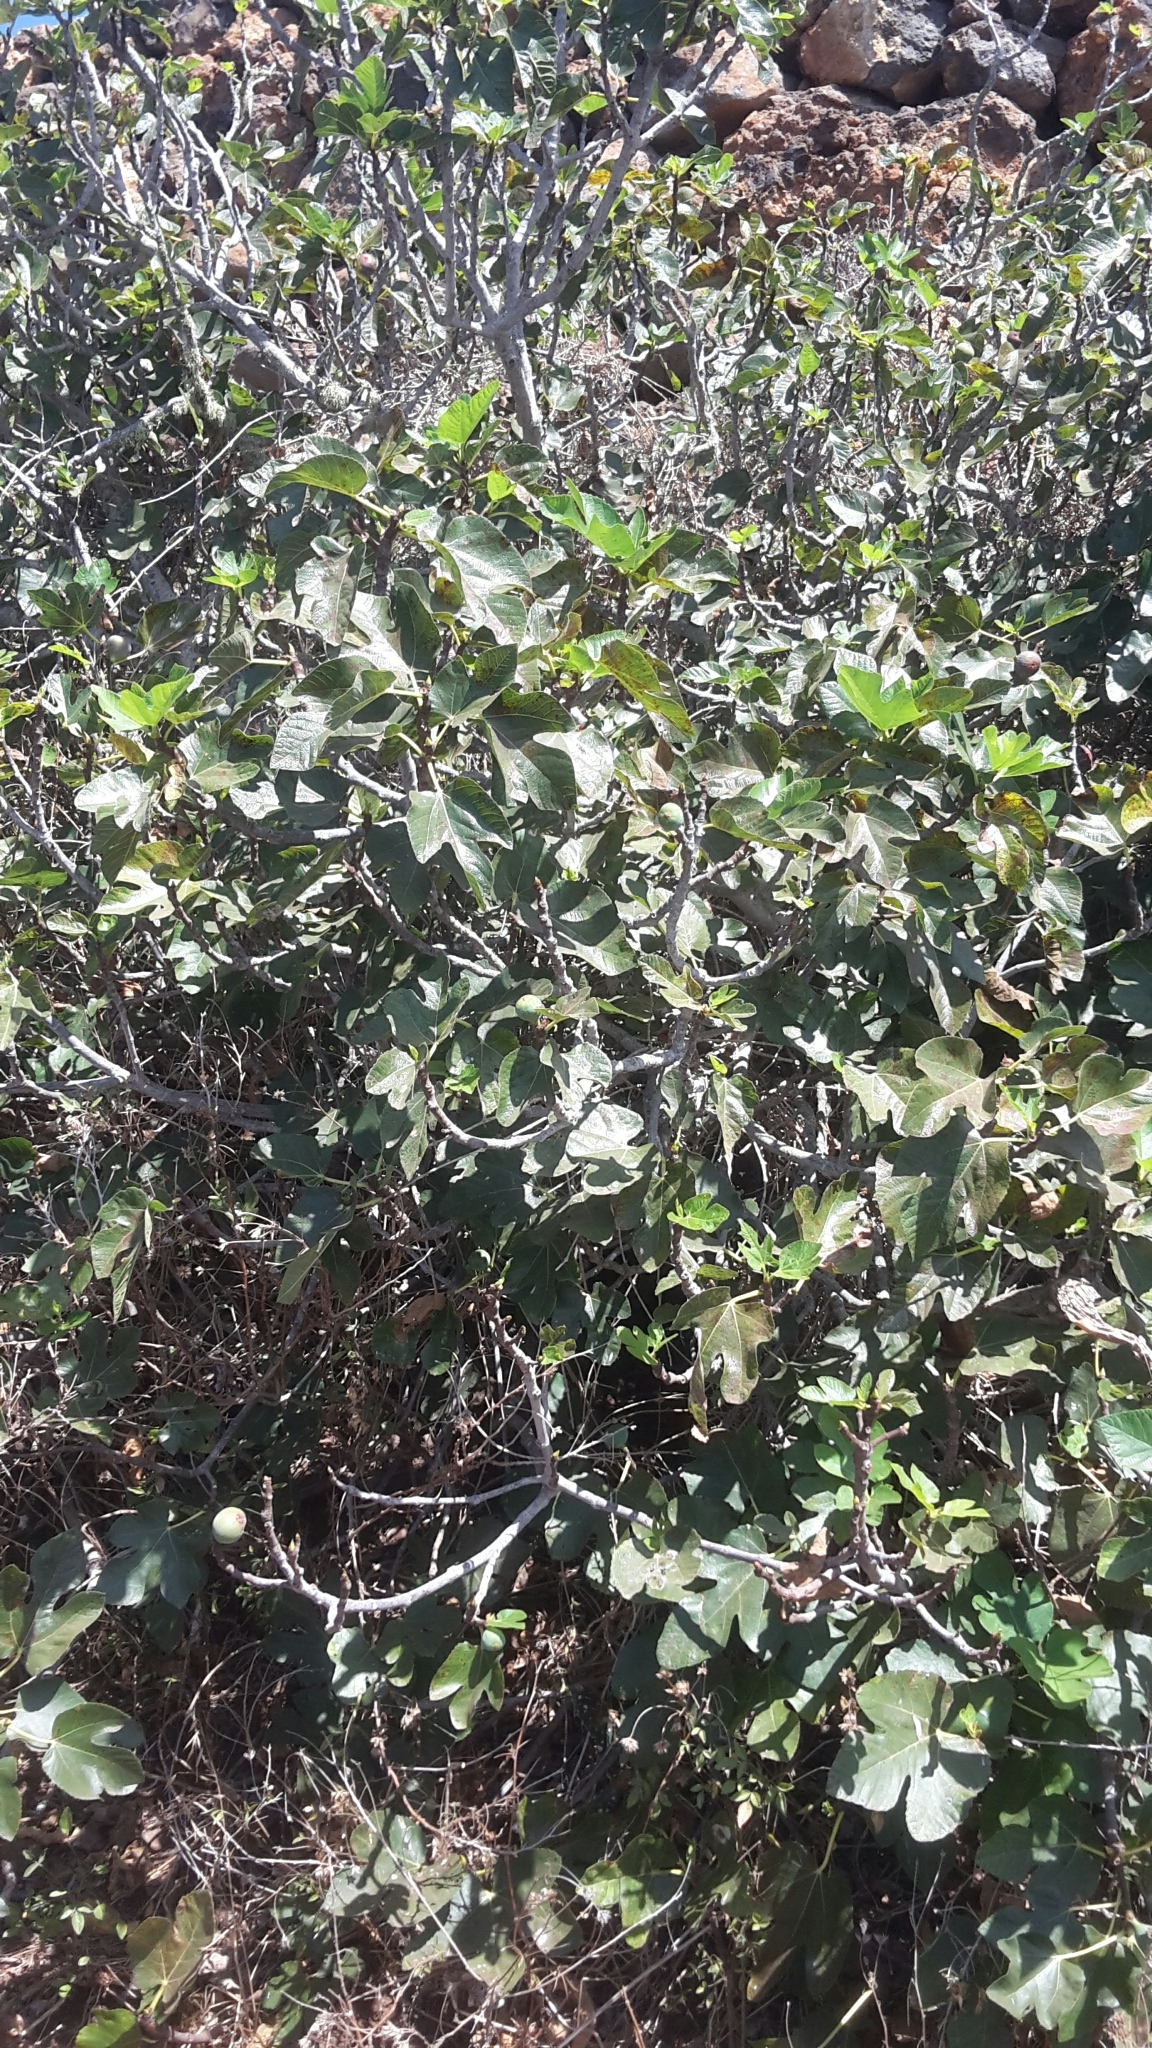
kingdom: Plantae
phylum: Tracheophyta
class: Magnoliopsida
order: Rosales
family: Moraceae
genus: Ficus
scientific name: Ficus carica
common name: Fig
